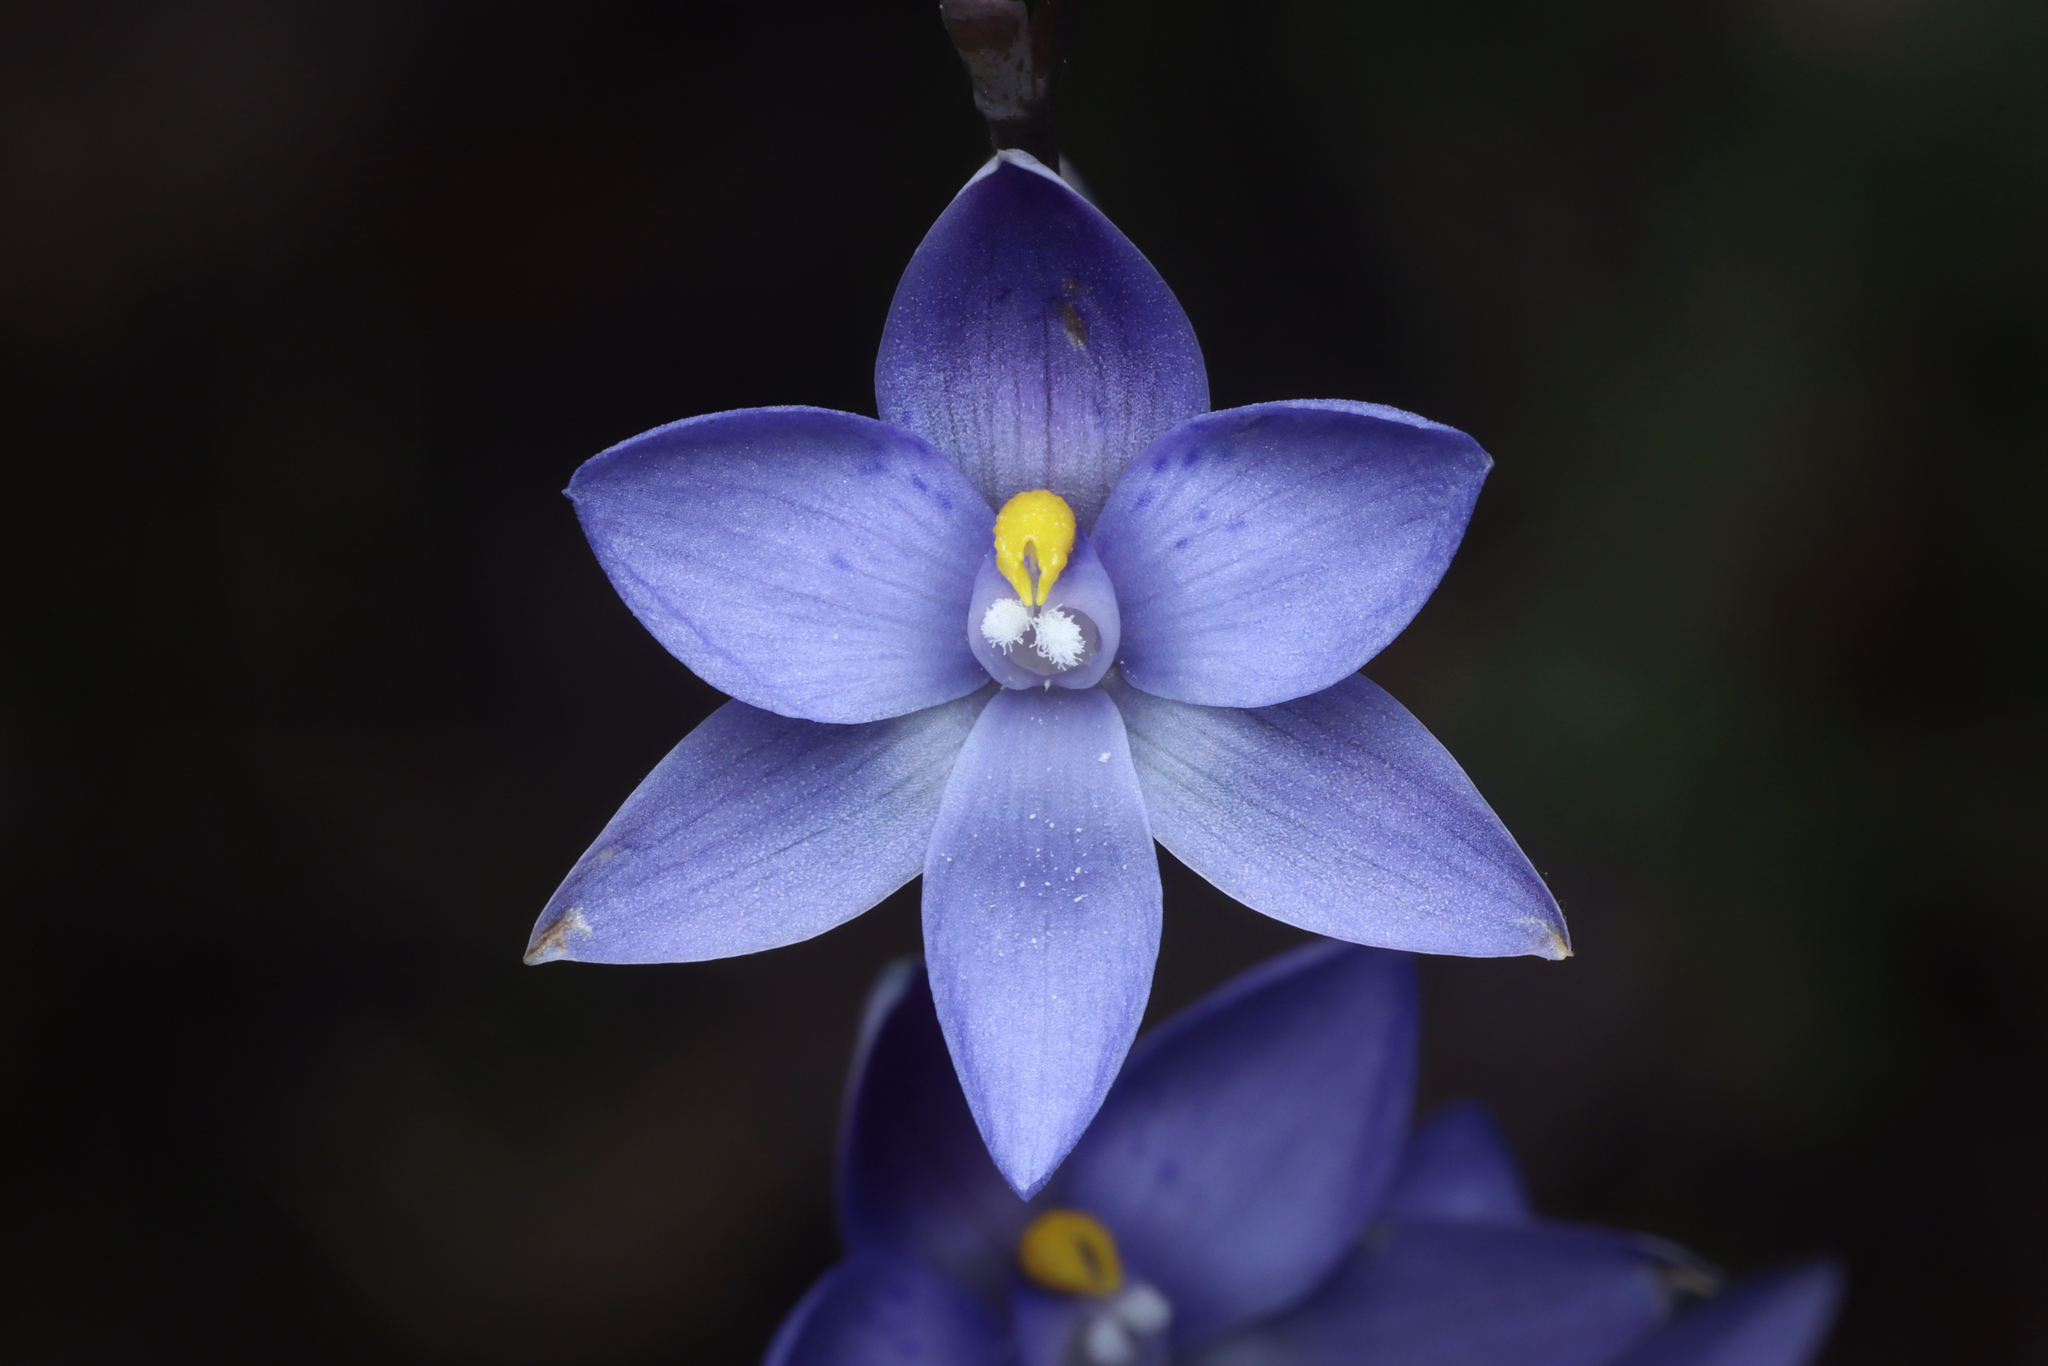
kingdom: Plantae
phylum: Tracheophyta
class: Liliopsida
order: Asparagales
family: Orchidaceae
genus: Thelymitra
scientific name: Thelymitra truncata
